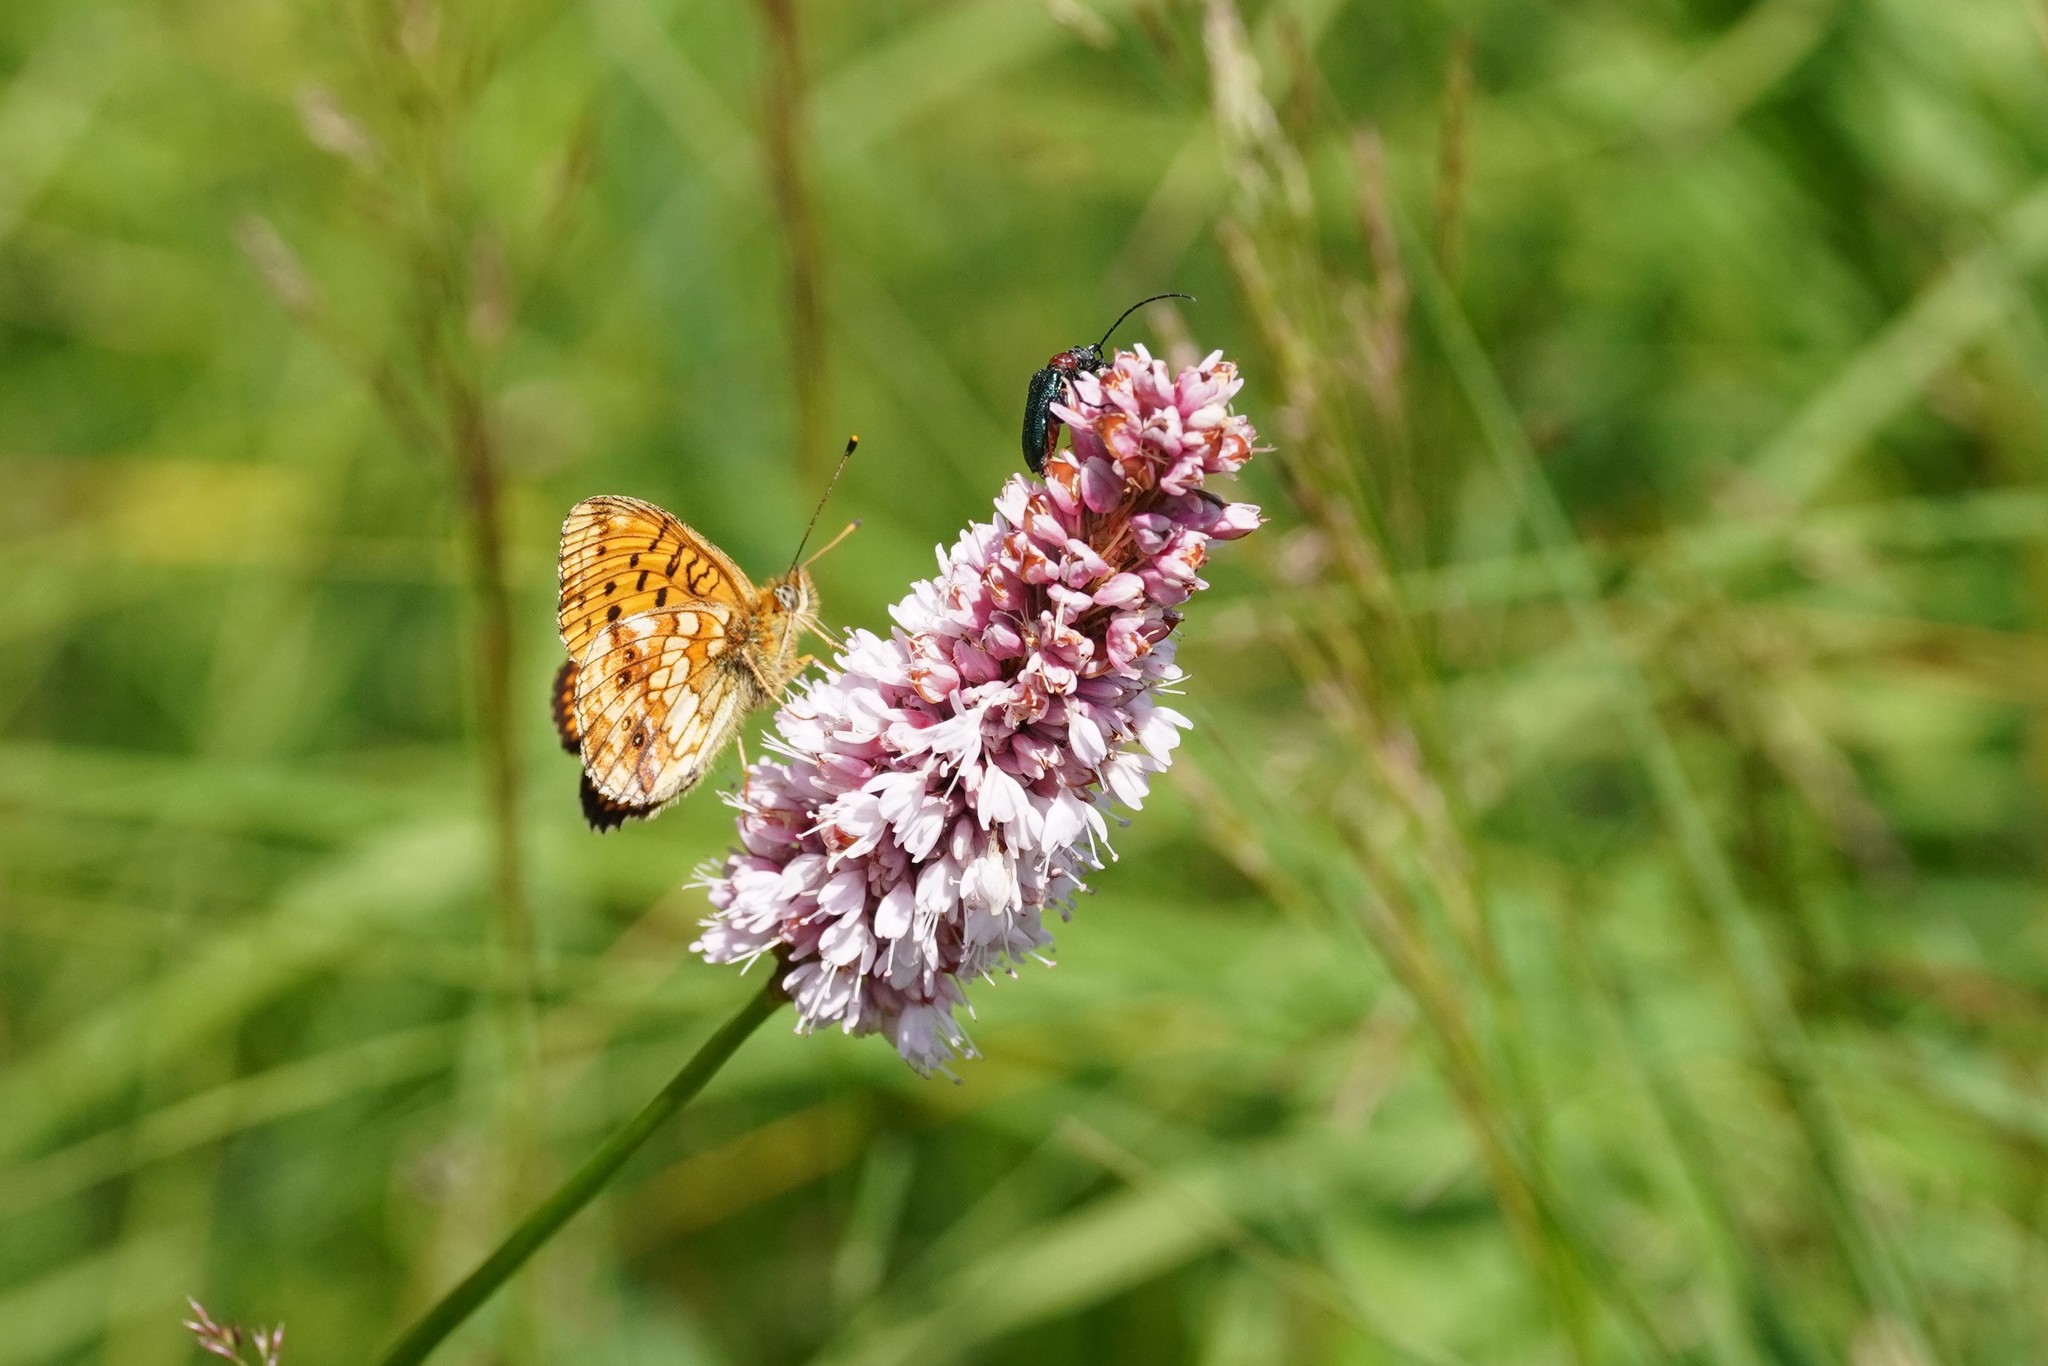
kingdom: Animalia
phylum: Arthropoda
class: Insecta
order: Lepidoptera
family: Nymphalidae
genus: Brenthis
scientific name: Brenthis ino
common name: Lesser marbled fritillary
